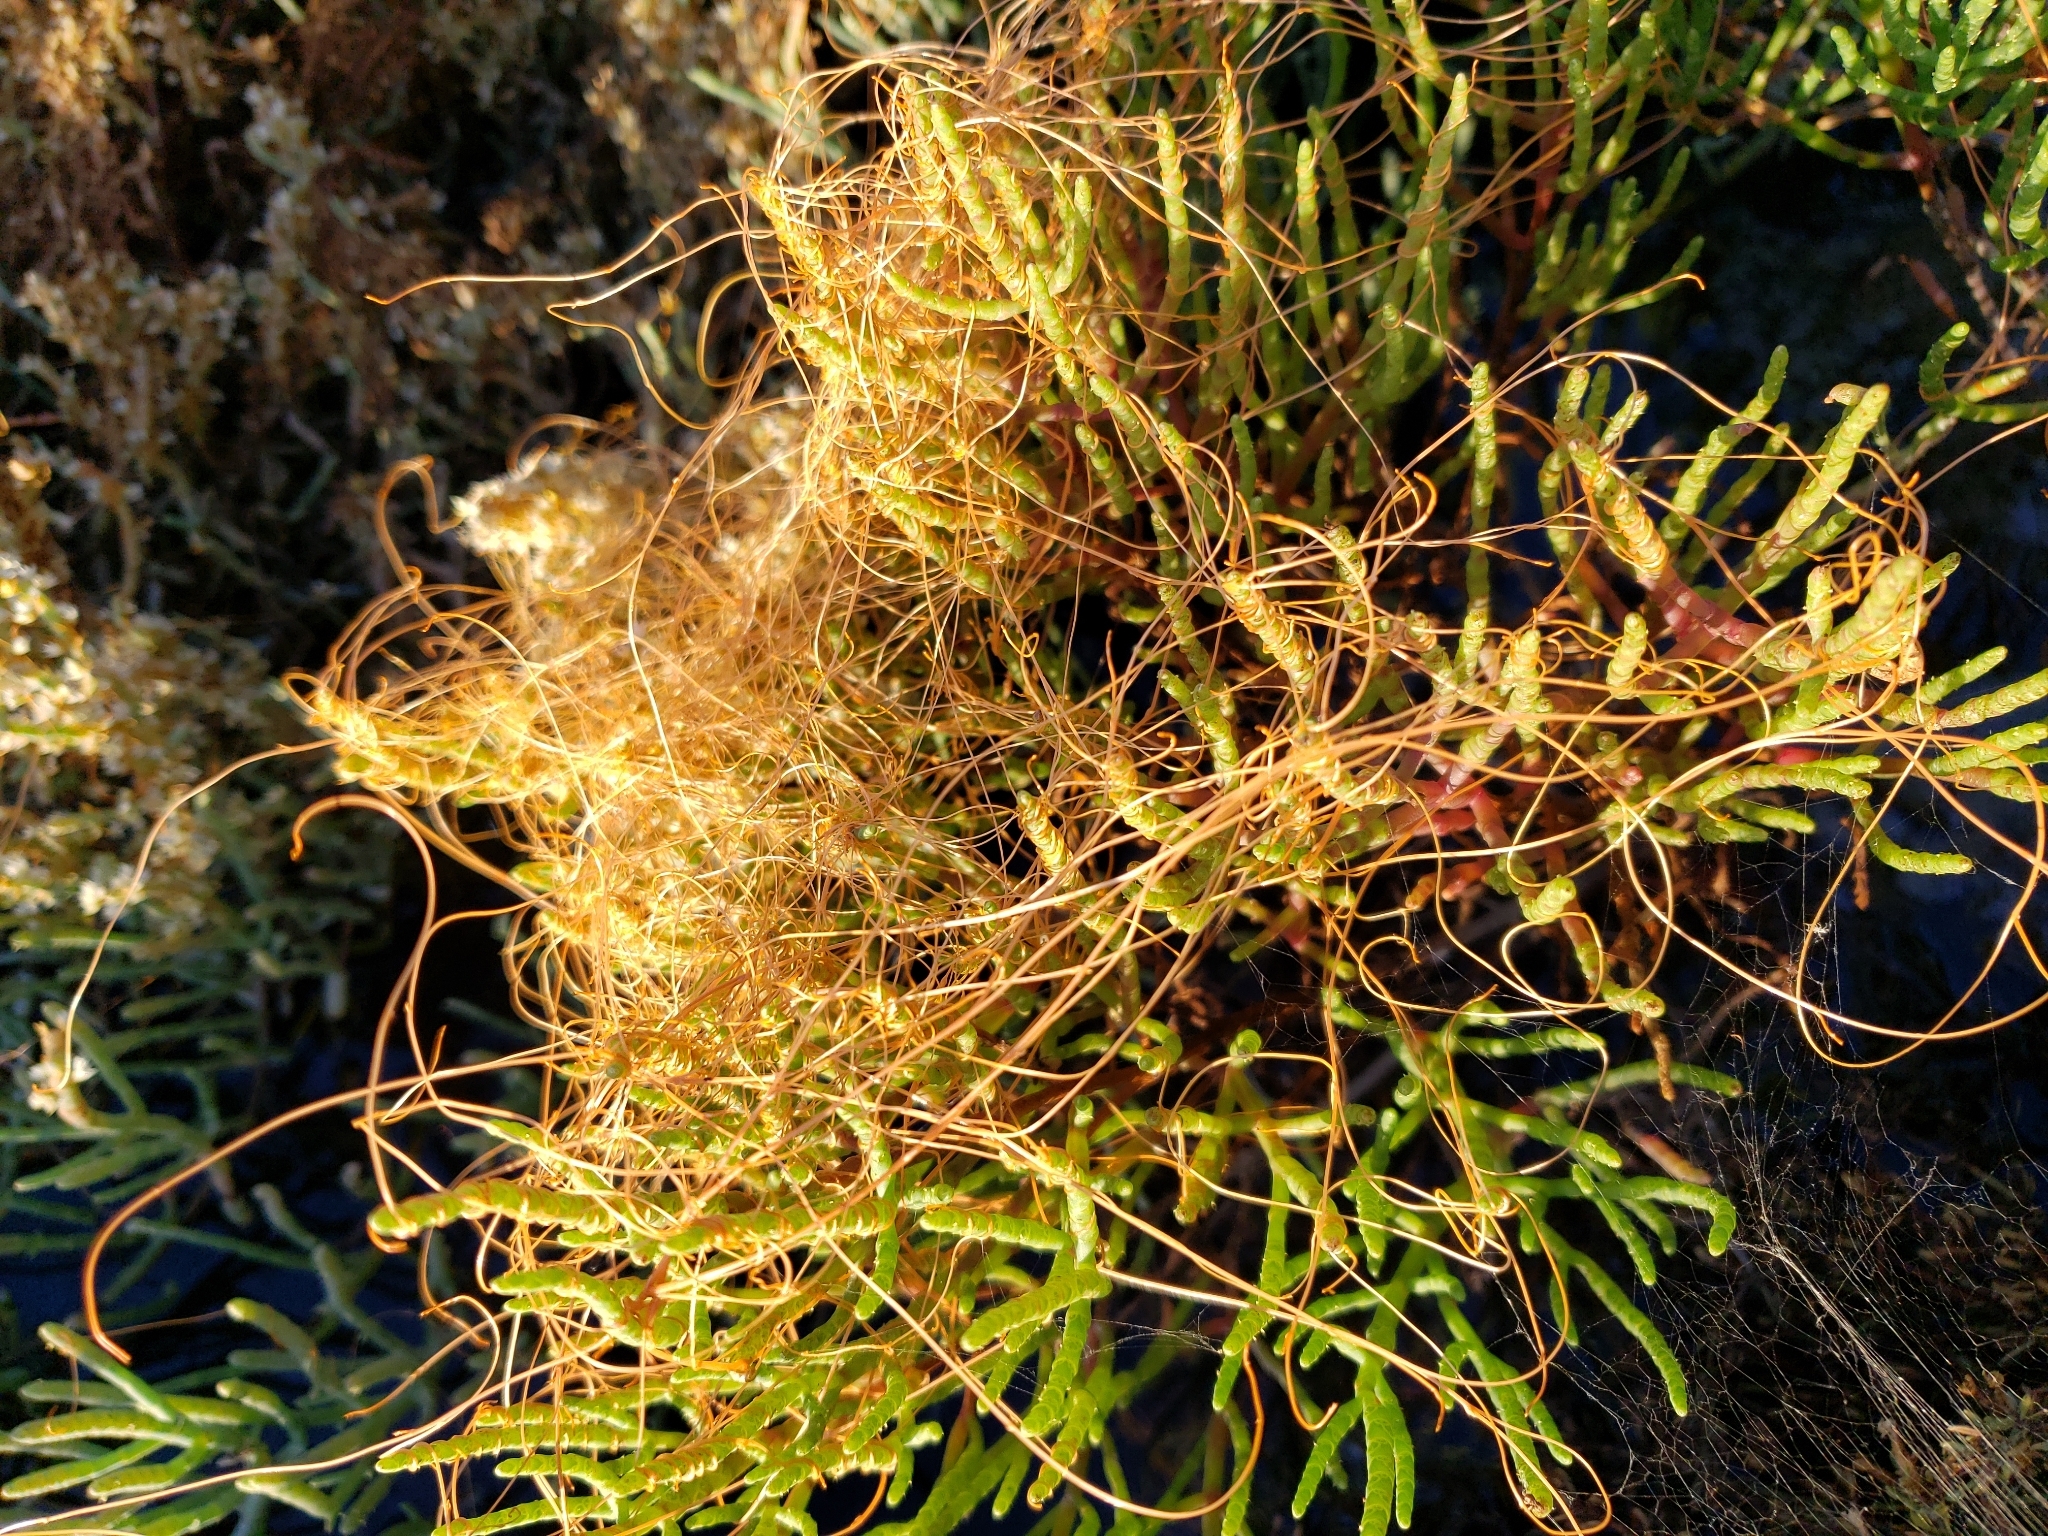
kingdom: Plantae
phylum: Tracheophyta
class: Magnoliopsida
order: Solanales
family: Convolvulaceae
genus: Cuscuta
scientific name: Cuscuta pacifica
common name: Large saltmarsh dodder
